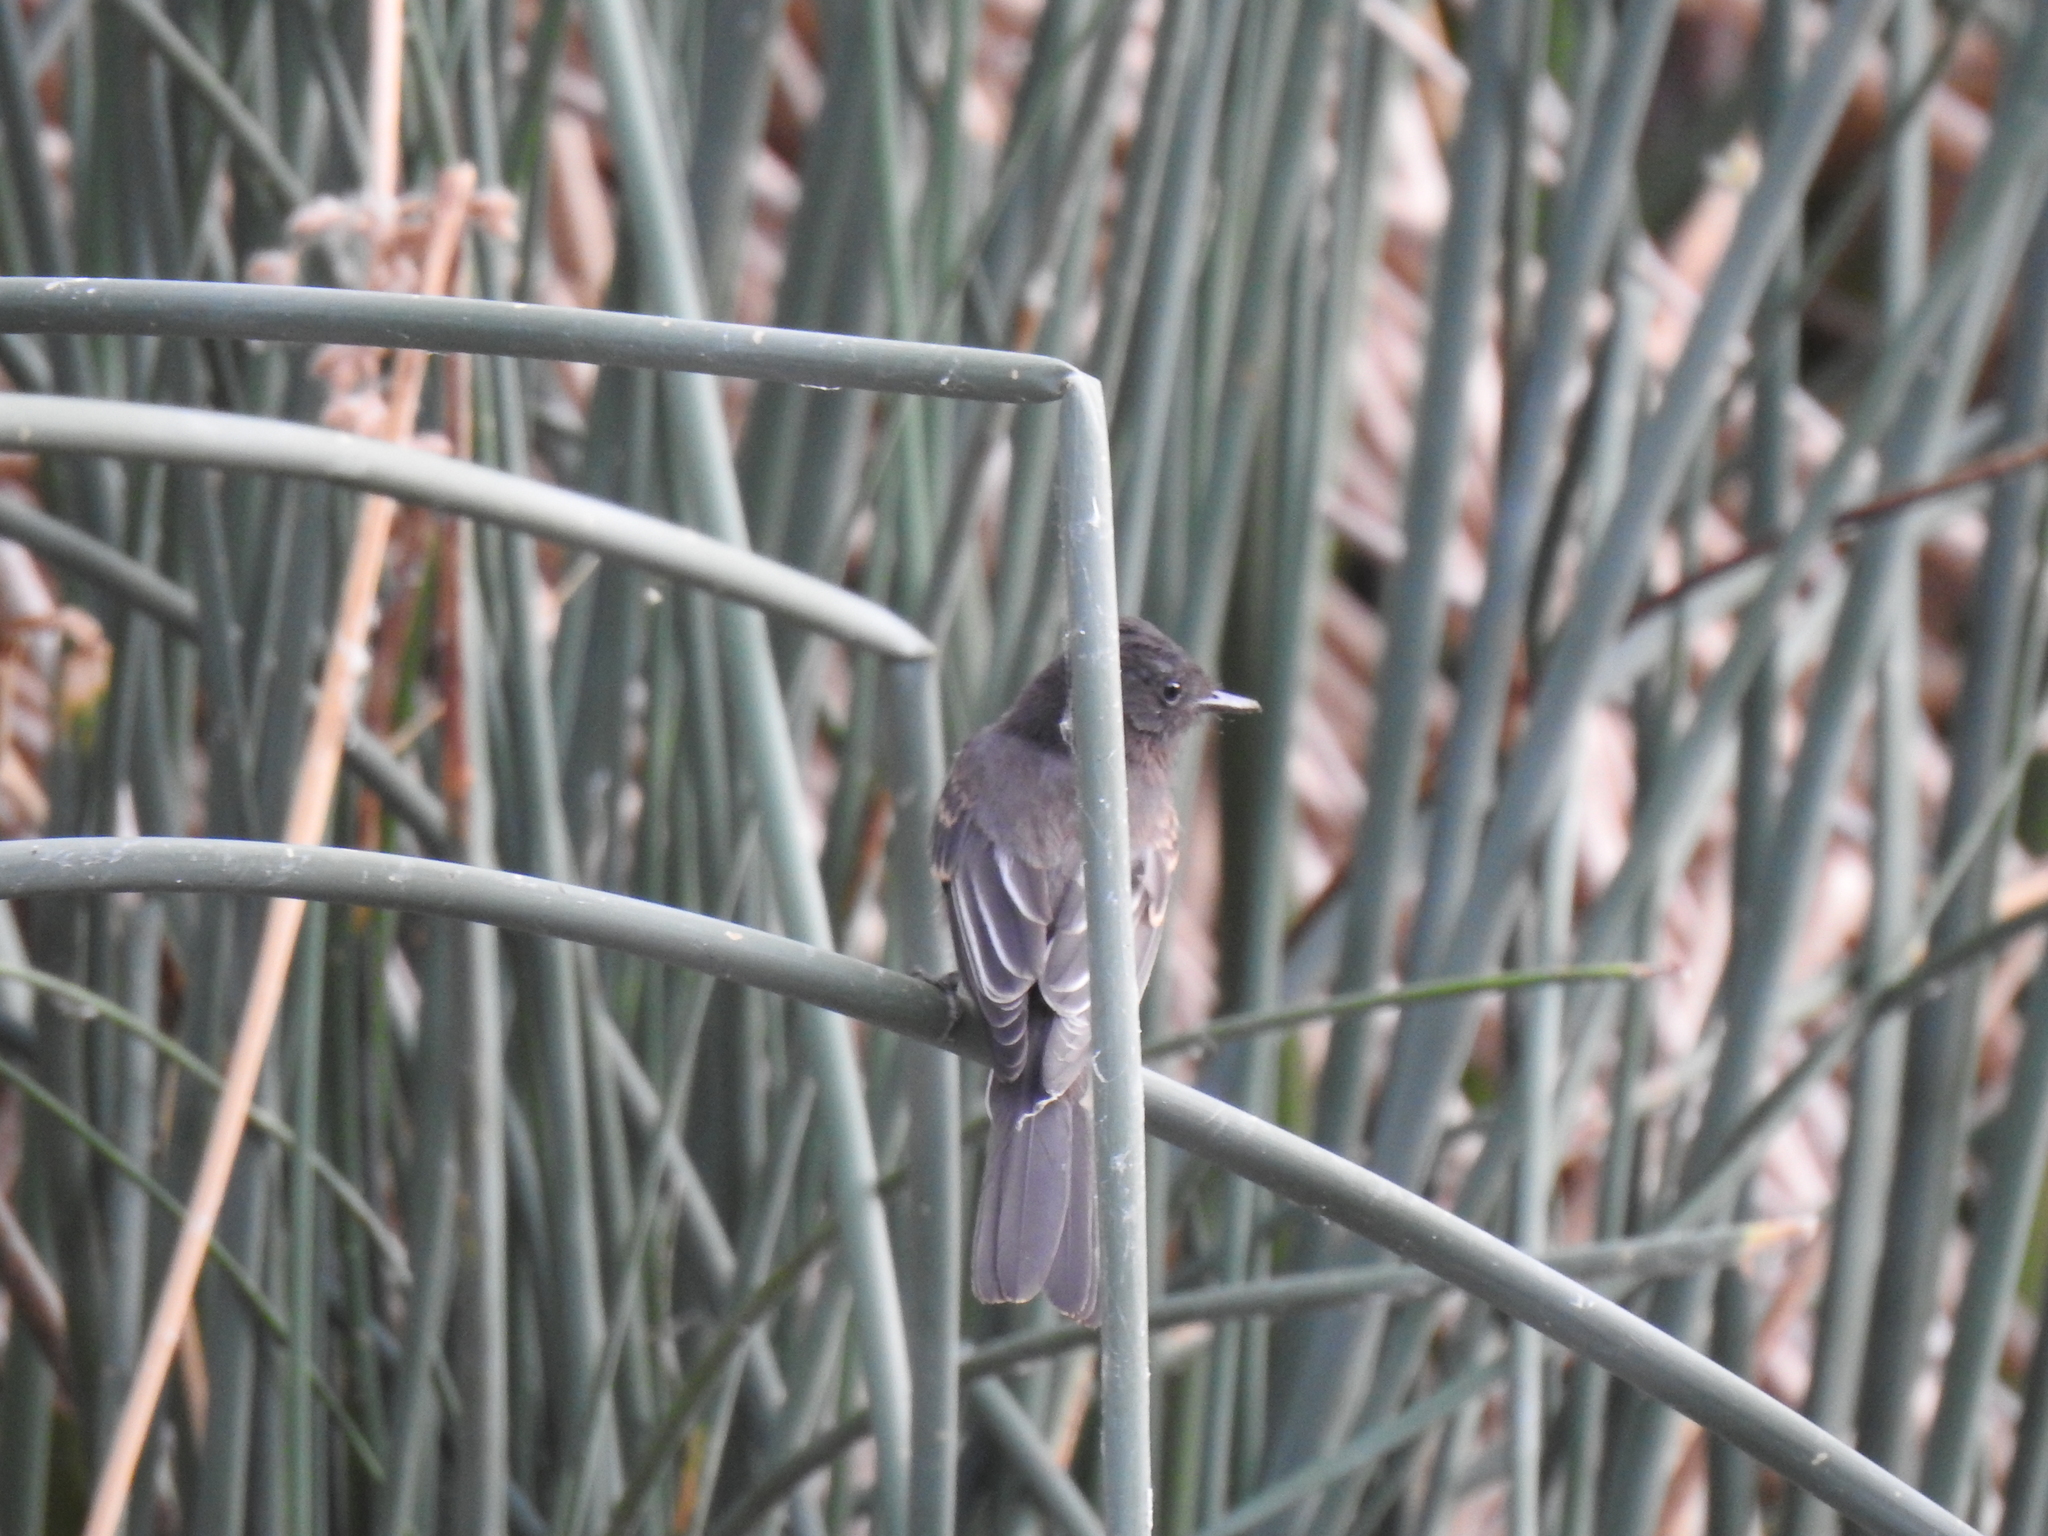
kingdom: Animalia
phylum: Chordata
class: Aves
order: Passeriformes
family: Tyrannidae
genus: Sayornis
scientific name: Sayornis nigricans
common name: Black phoebe
